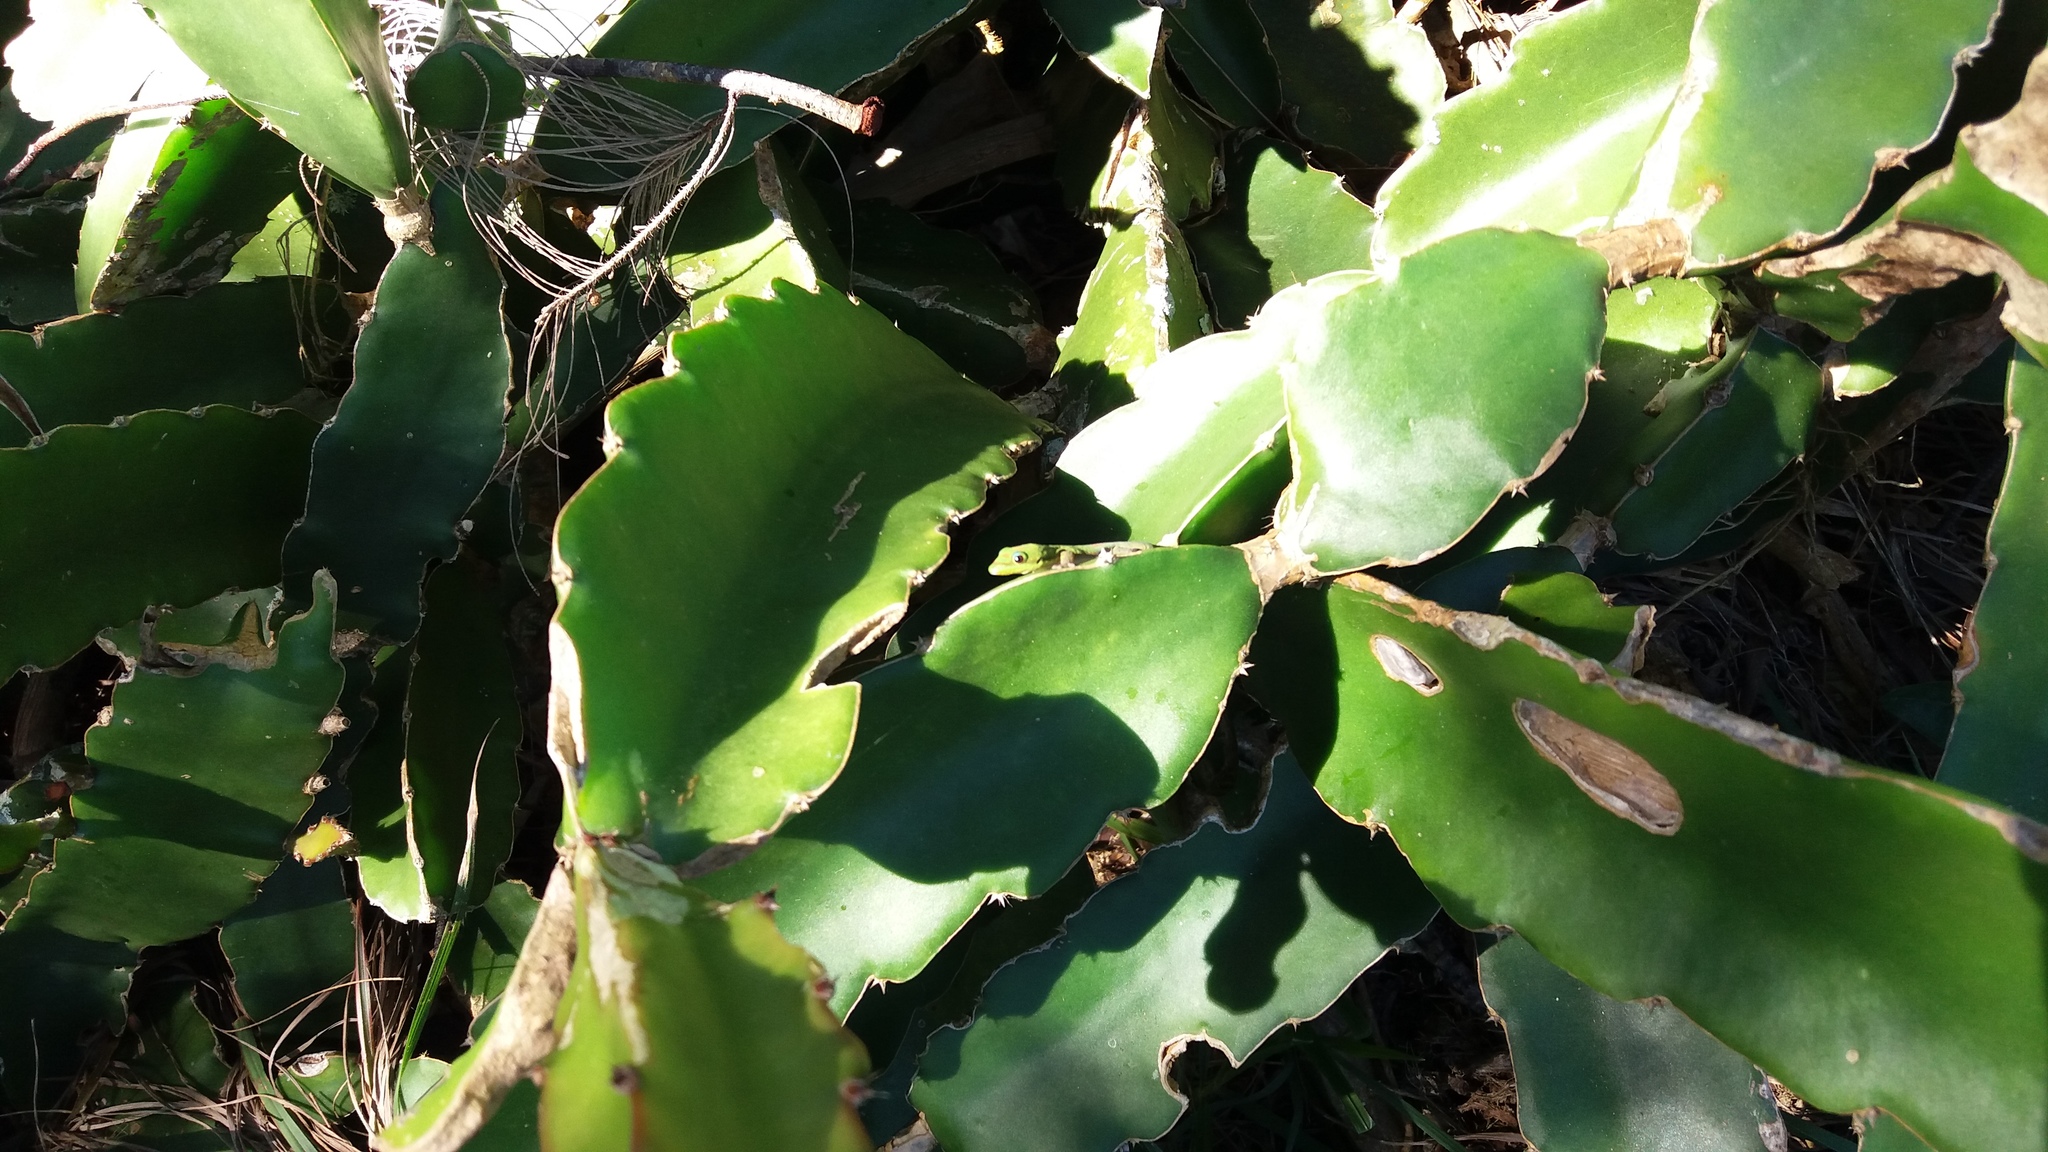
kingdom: Animalia
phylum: Chordata
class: Squamata
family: Gekkonidae
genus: Phelsuma
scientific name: Phelsuma laticauda
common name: Gold dust day gecko
